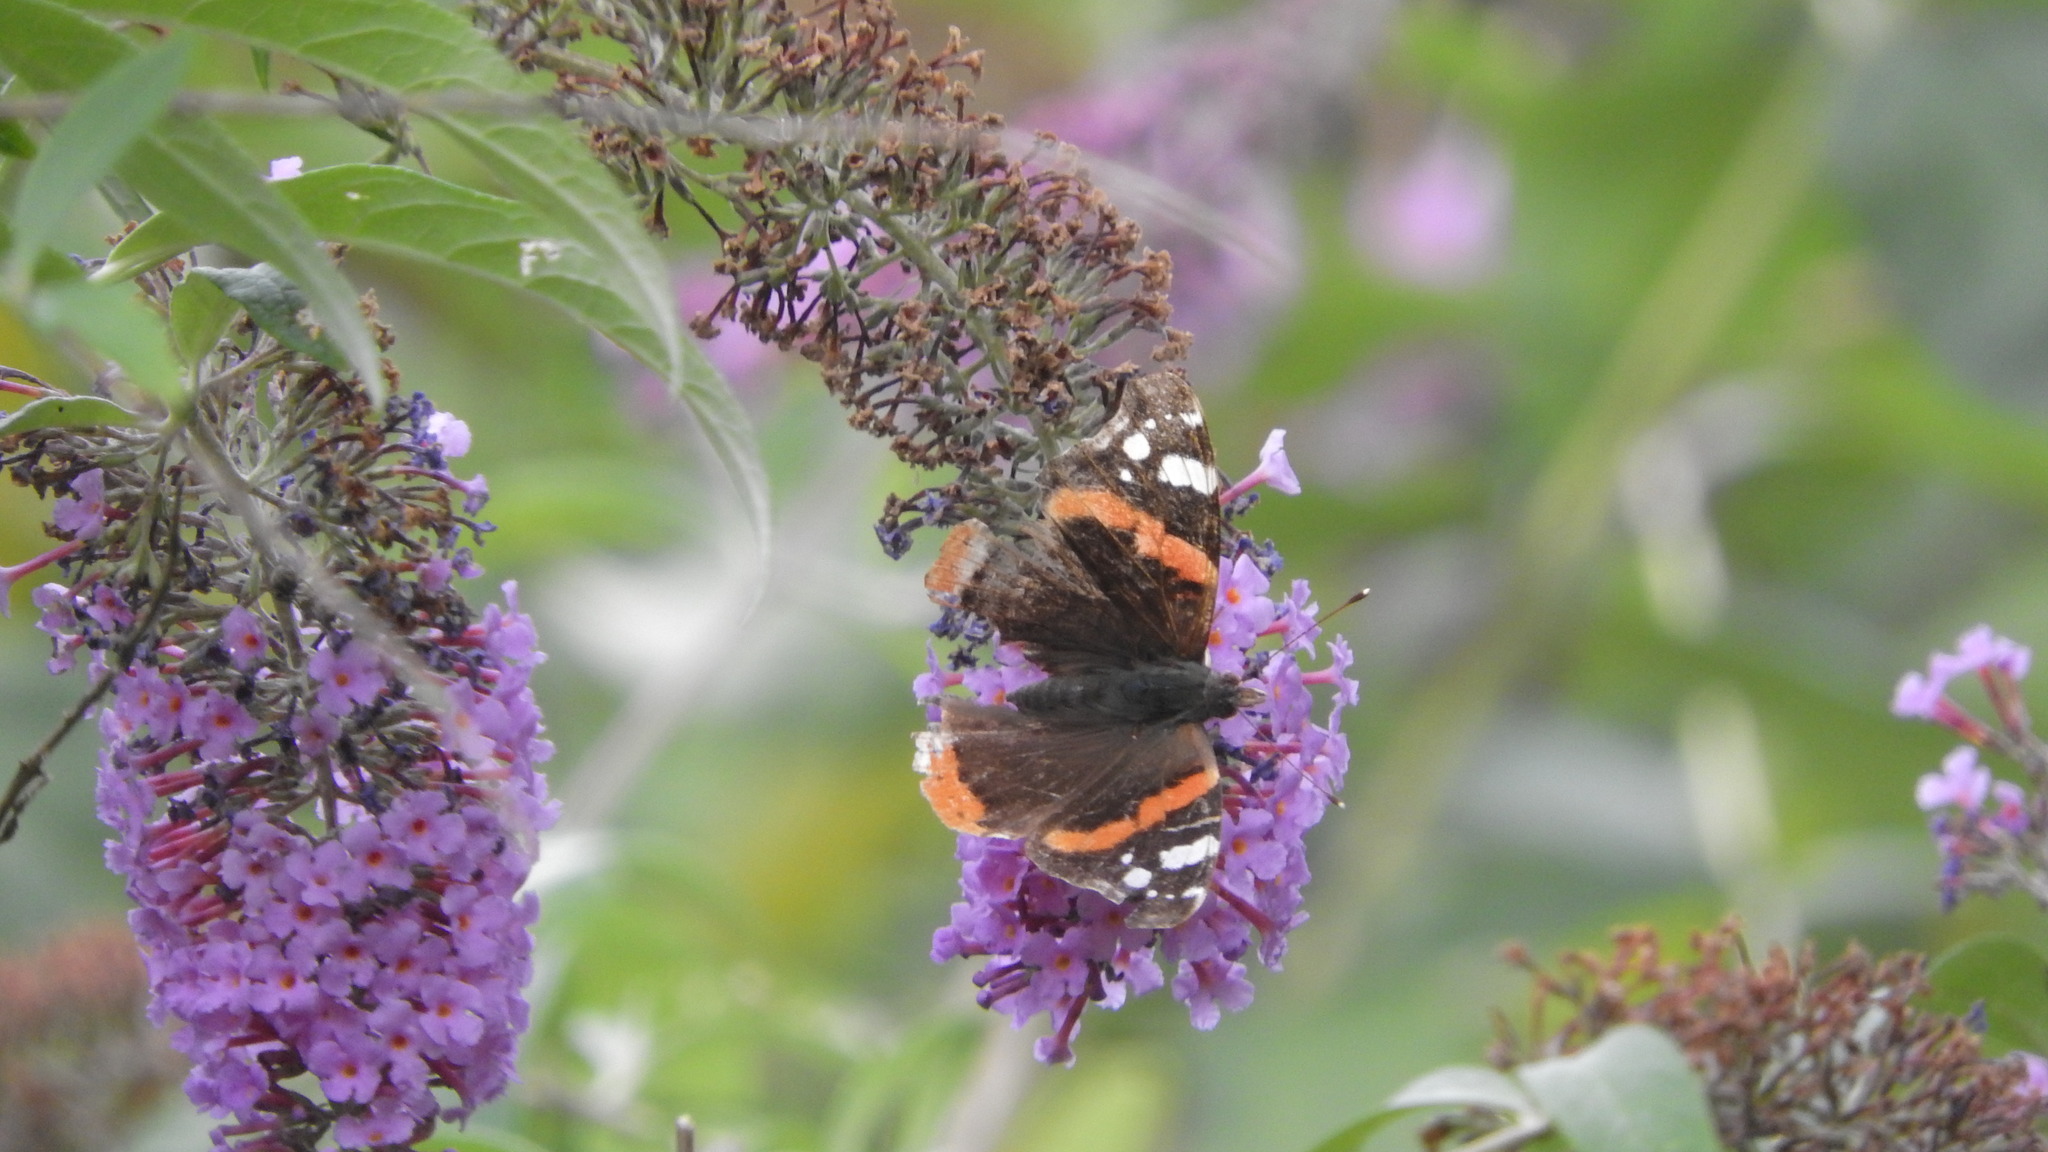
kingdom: Animalia
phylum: Arthropoda
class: Insecta
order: Lepidoptera
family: Nymphalidae
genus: Vanessa
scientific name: Vanessa atalanta
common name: Red admiral
